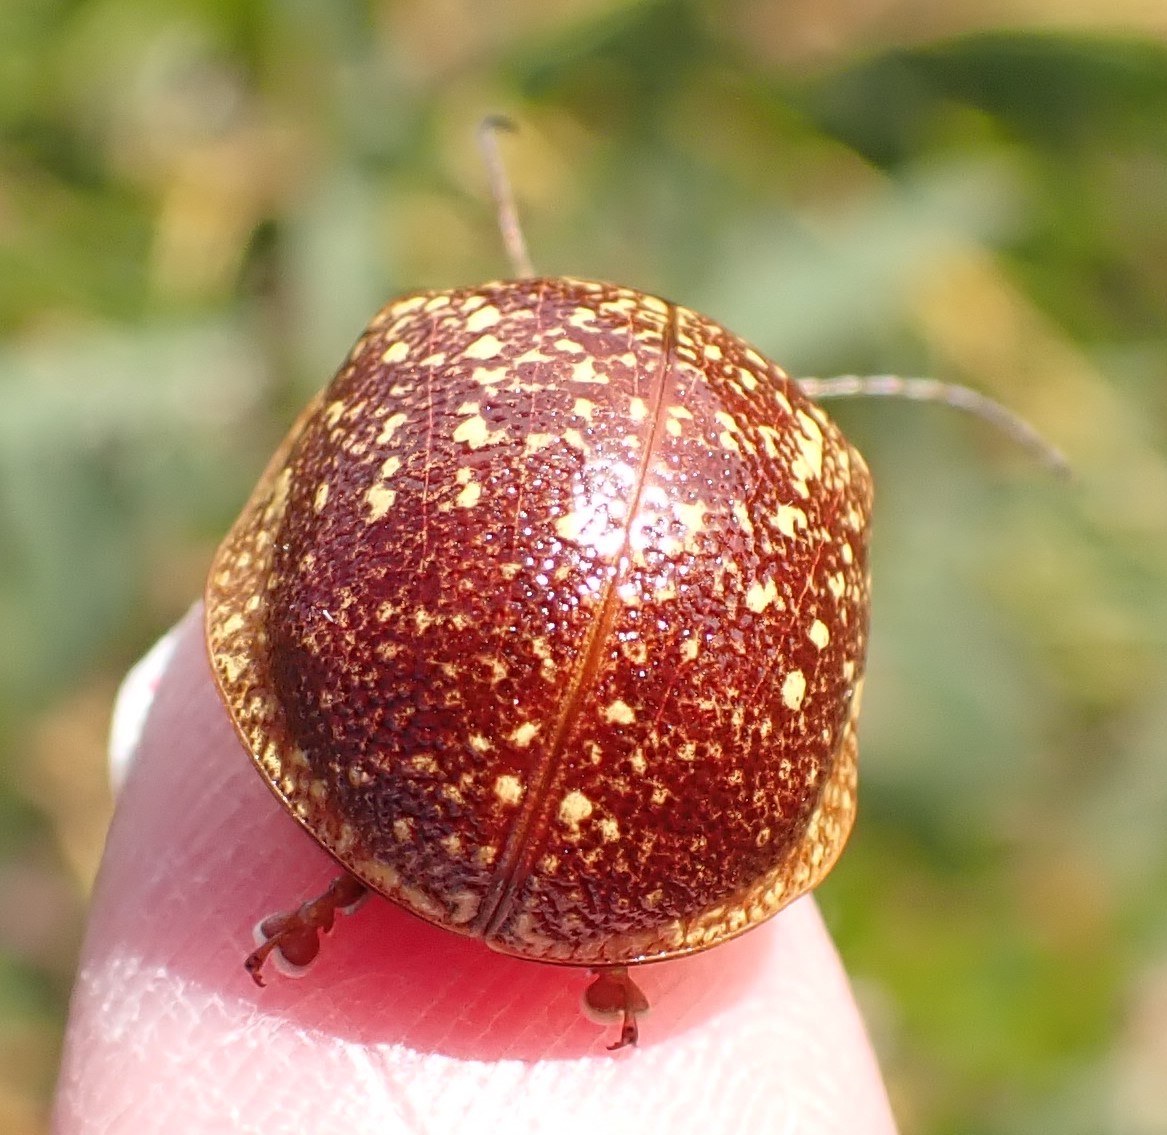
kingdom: Animalia
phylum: Arthropoda
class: Insecta
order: Coleoptera
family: Chrysomelidae
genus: Paropsis
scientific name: Paropsis
